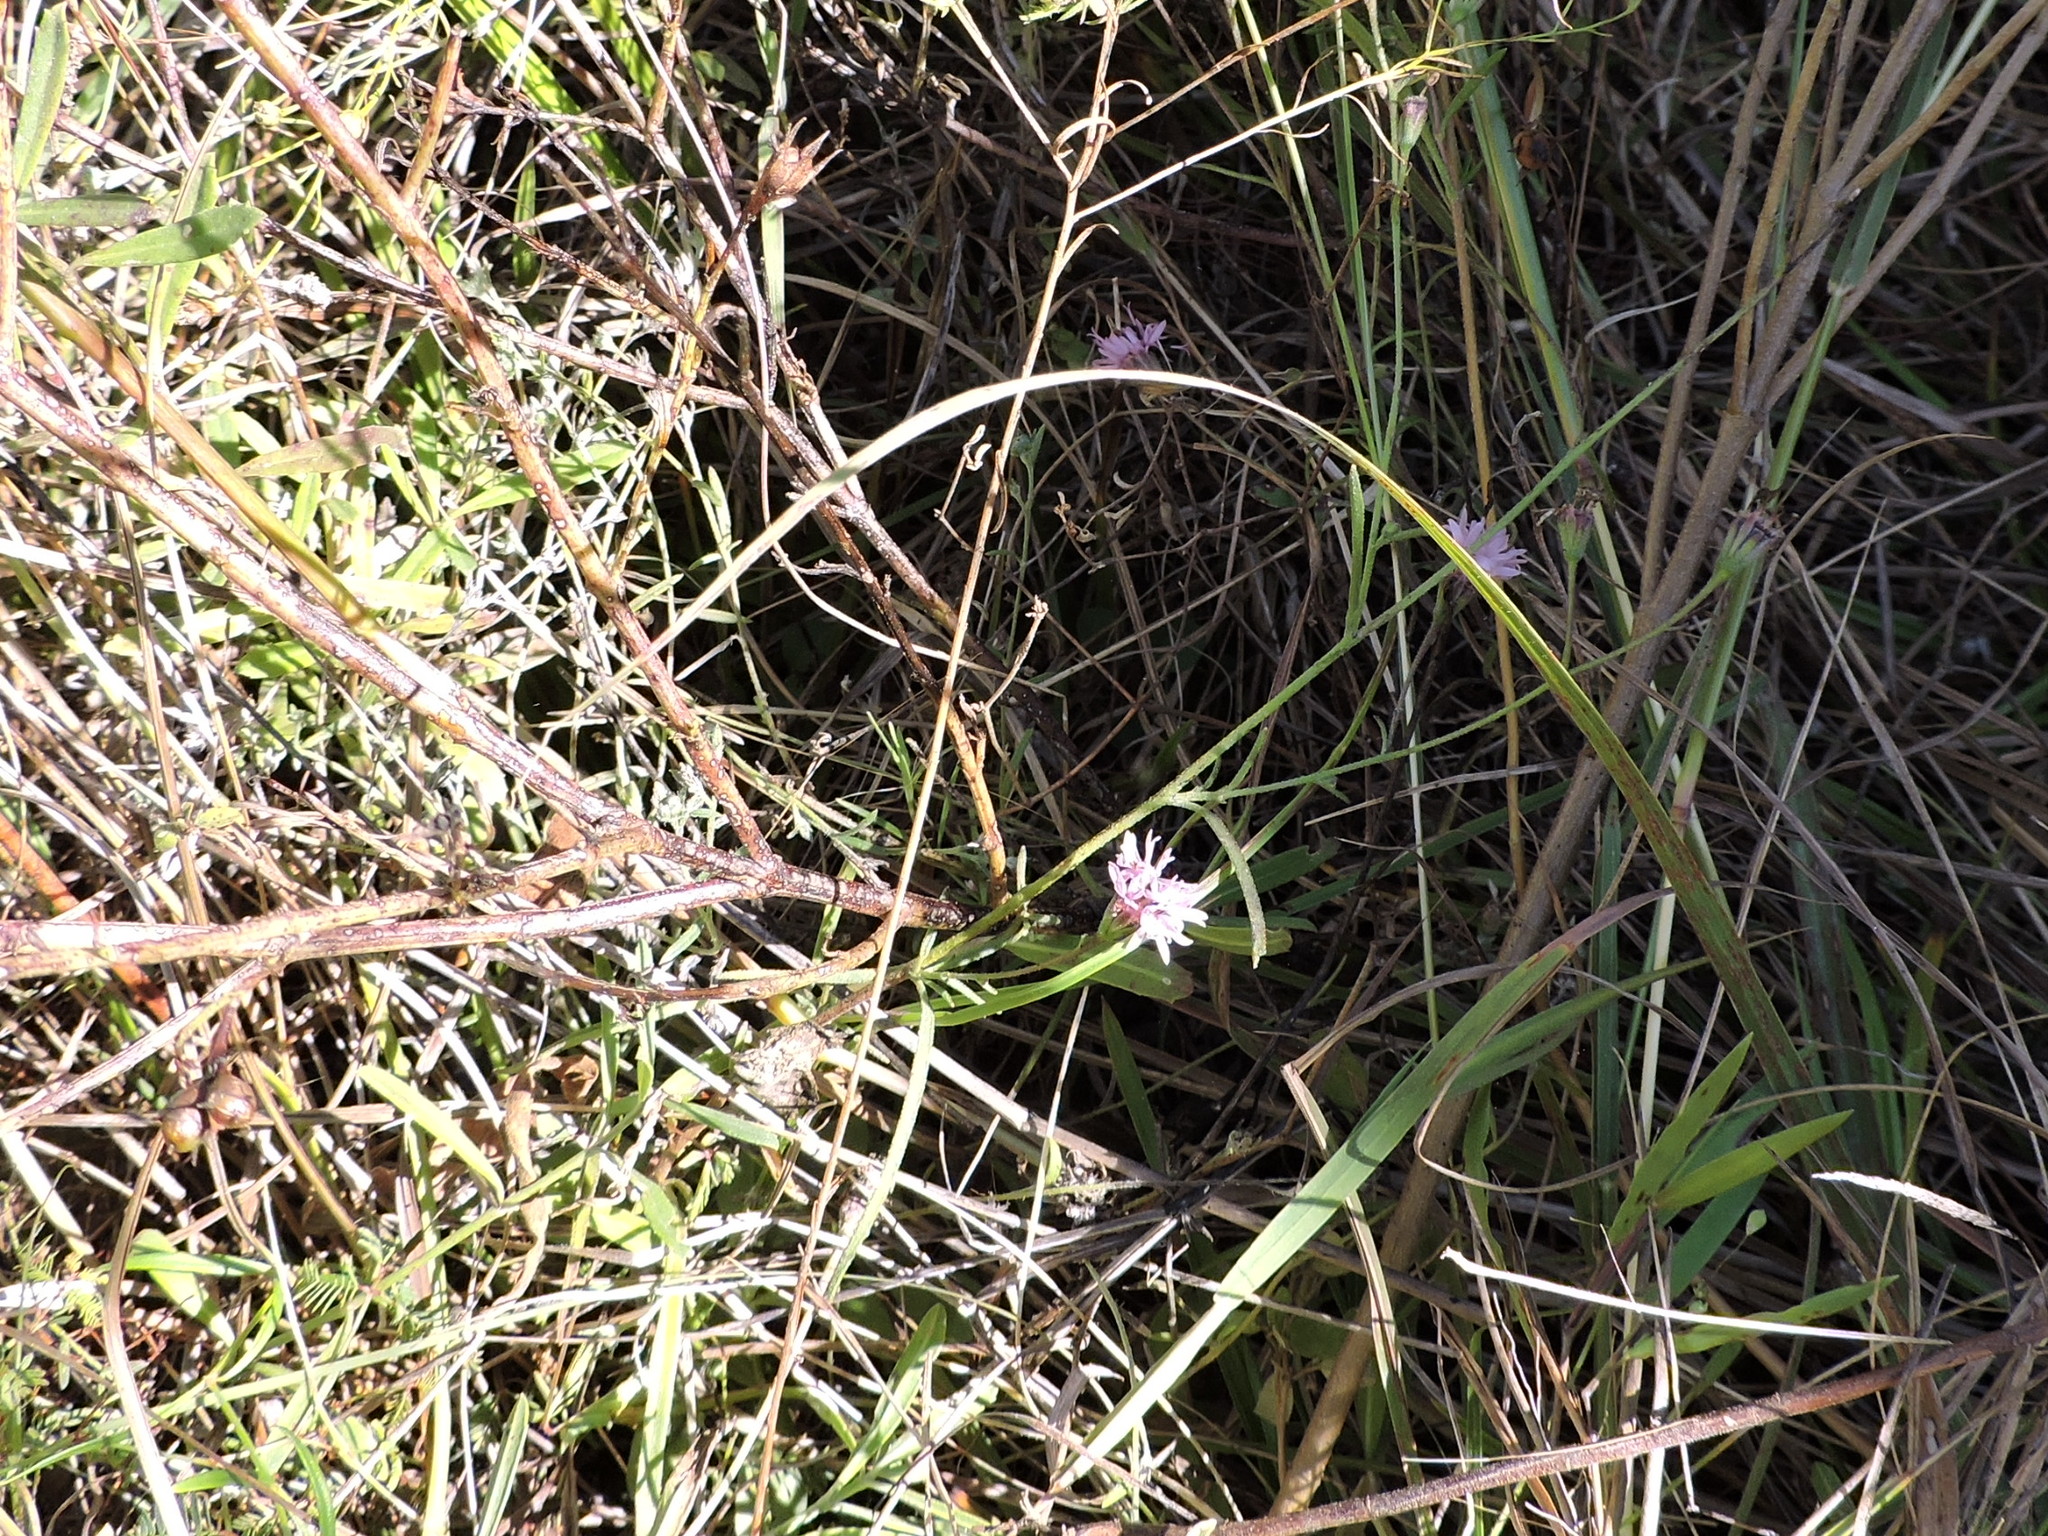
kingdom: Plantae
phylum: Tracheophyta
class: Magnoliopsida
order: Asterales
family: Asteraceae
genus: Palafoxia
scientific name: Palafoxia rosea
